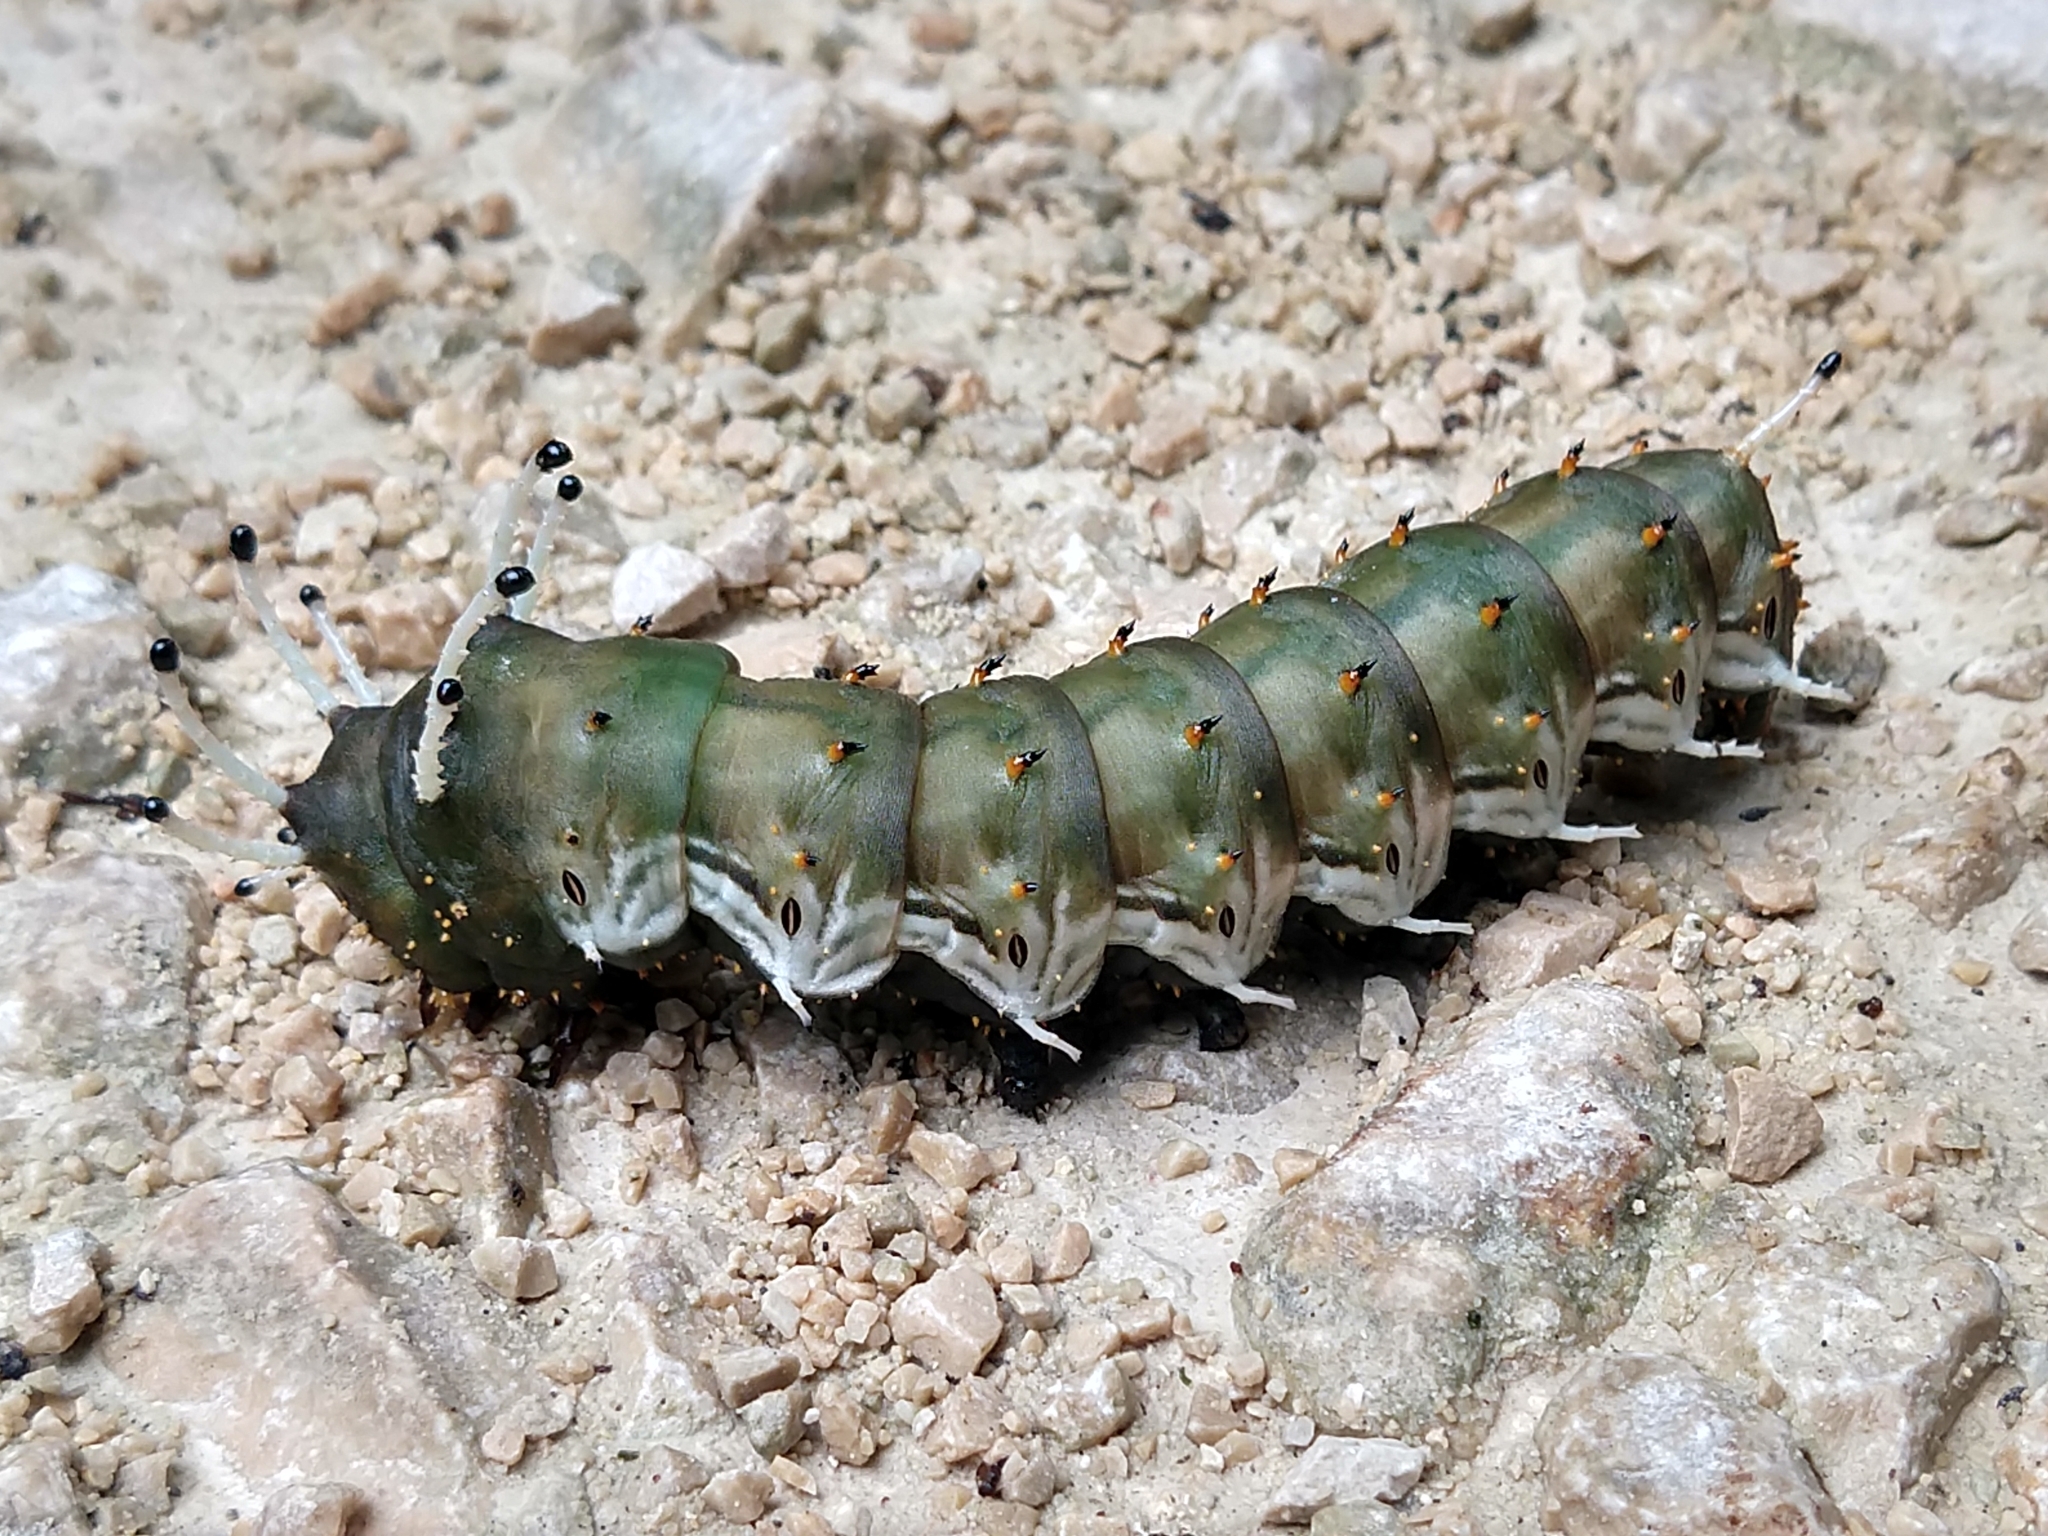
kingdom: Animalia
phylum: Arthropoda
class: Insecta
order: Lepidoptera
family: Saturniidae
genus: Citheronia
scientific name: Citheronia mexicana
